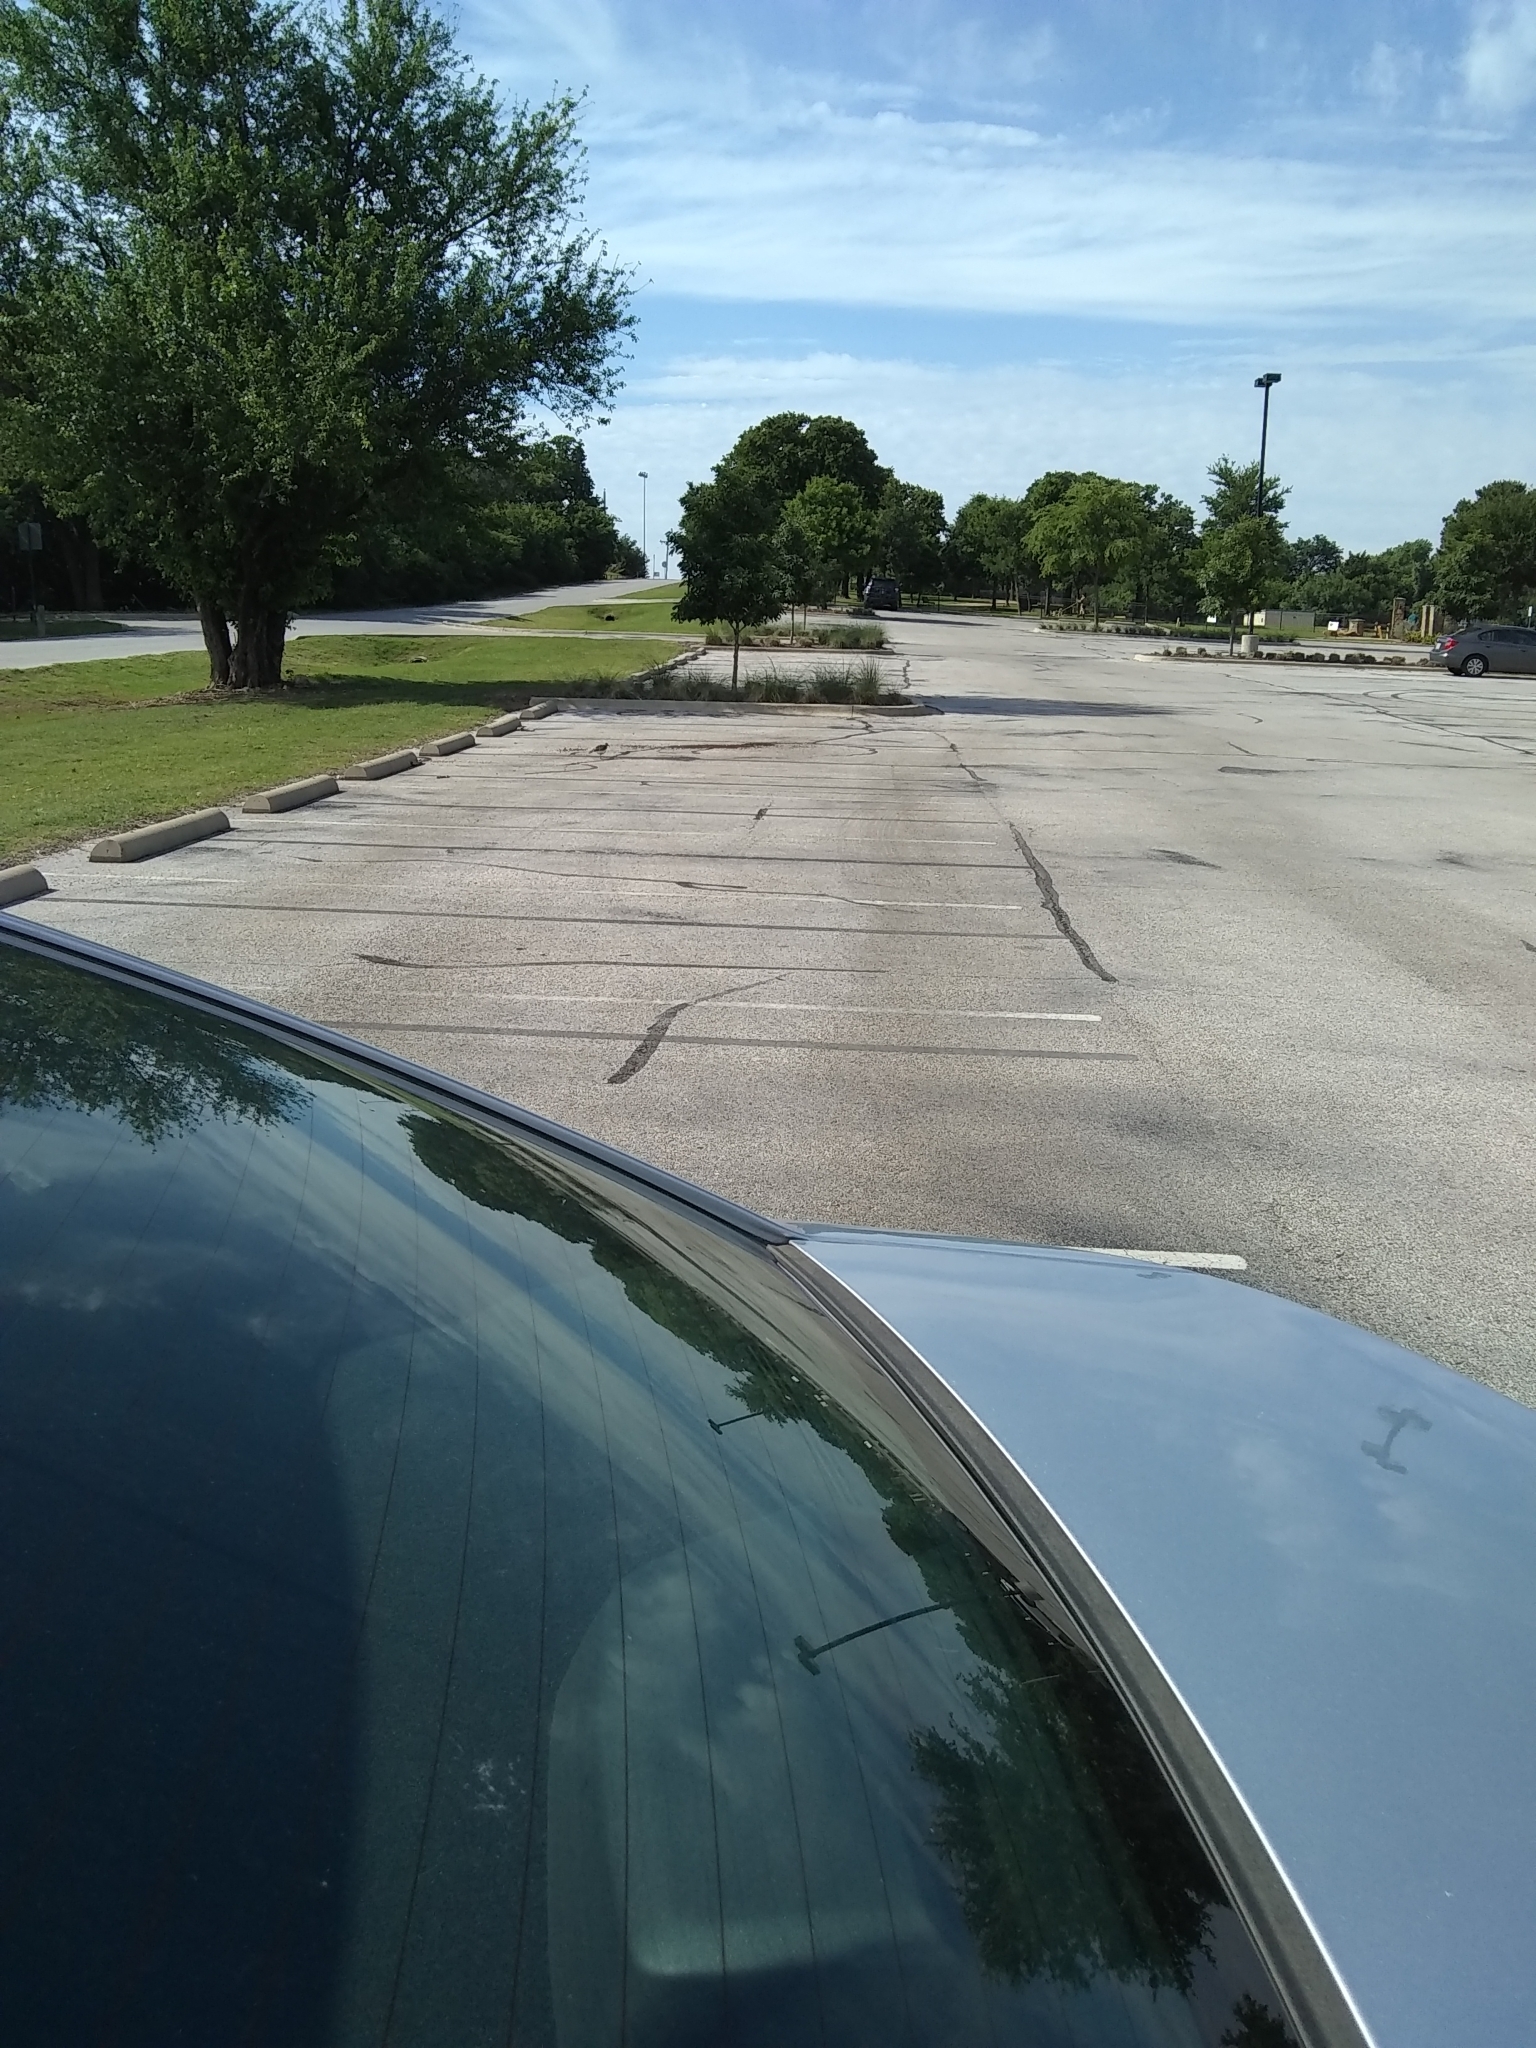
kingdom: Animalia
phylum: Chordata
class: Aves
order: Charadriiformes
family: Charadriidae
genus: Charadrius
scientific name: Charadrius vociferus
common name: Killdeer
